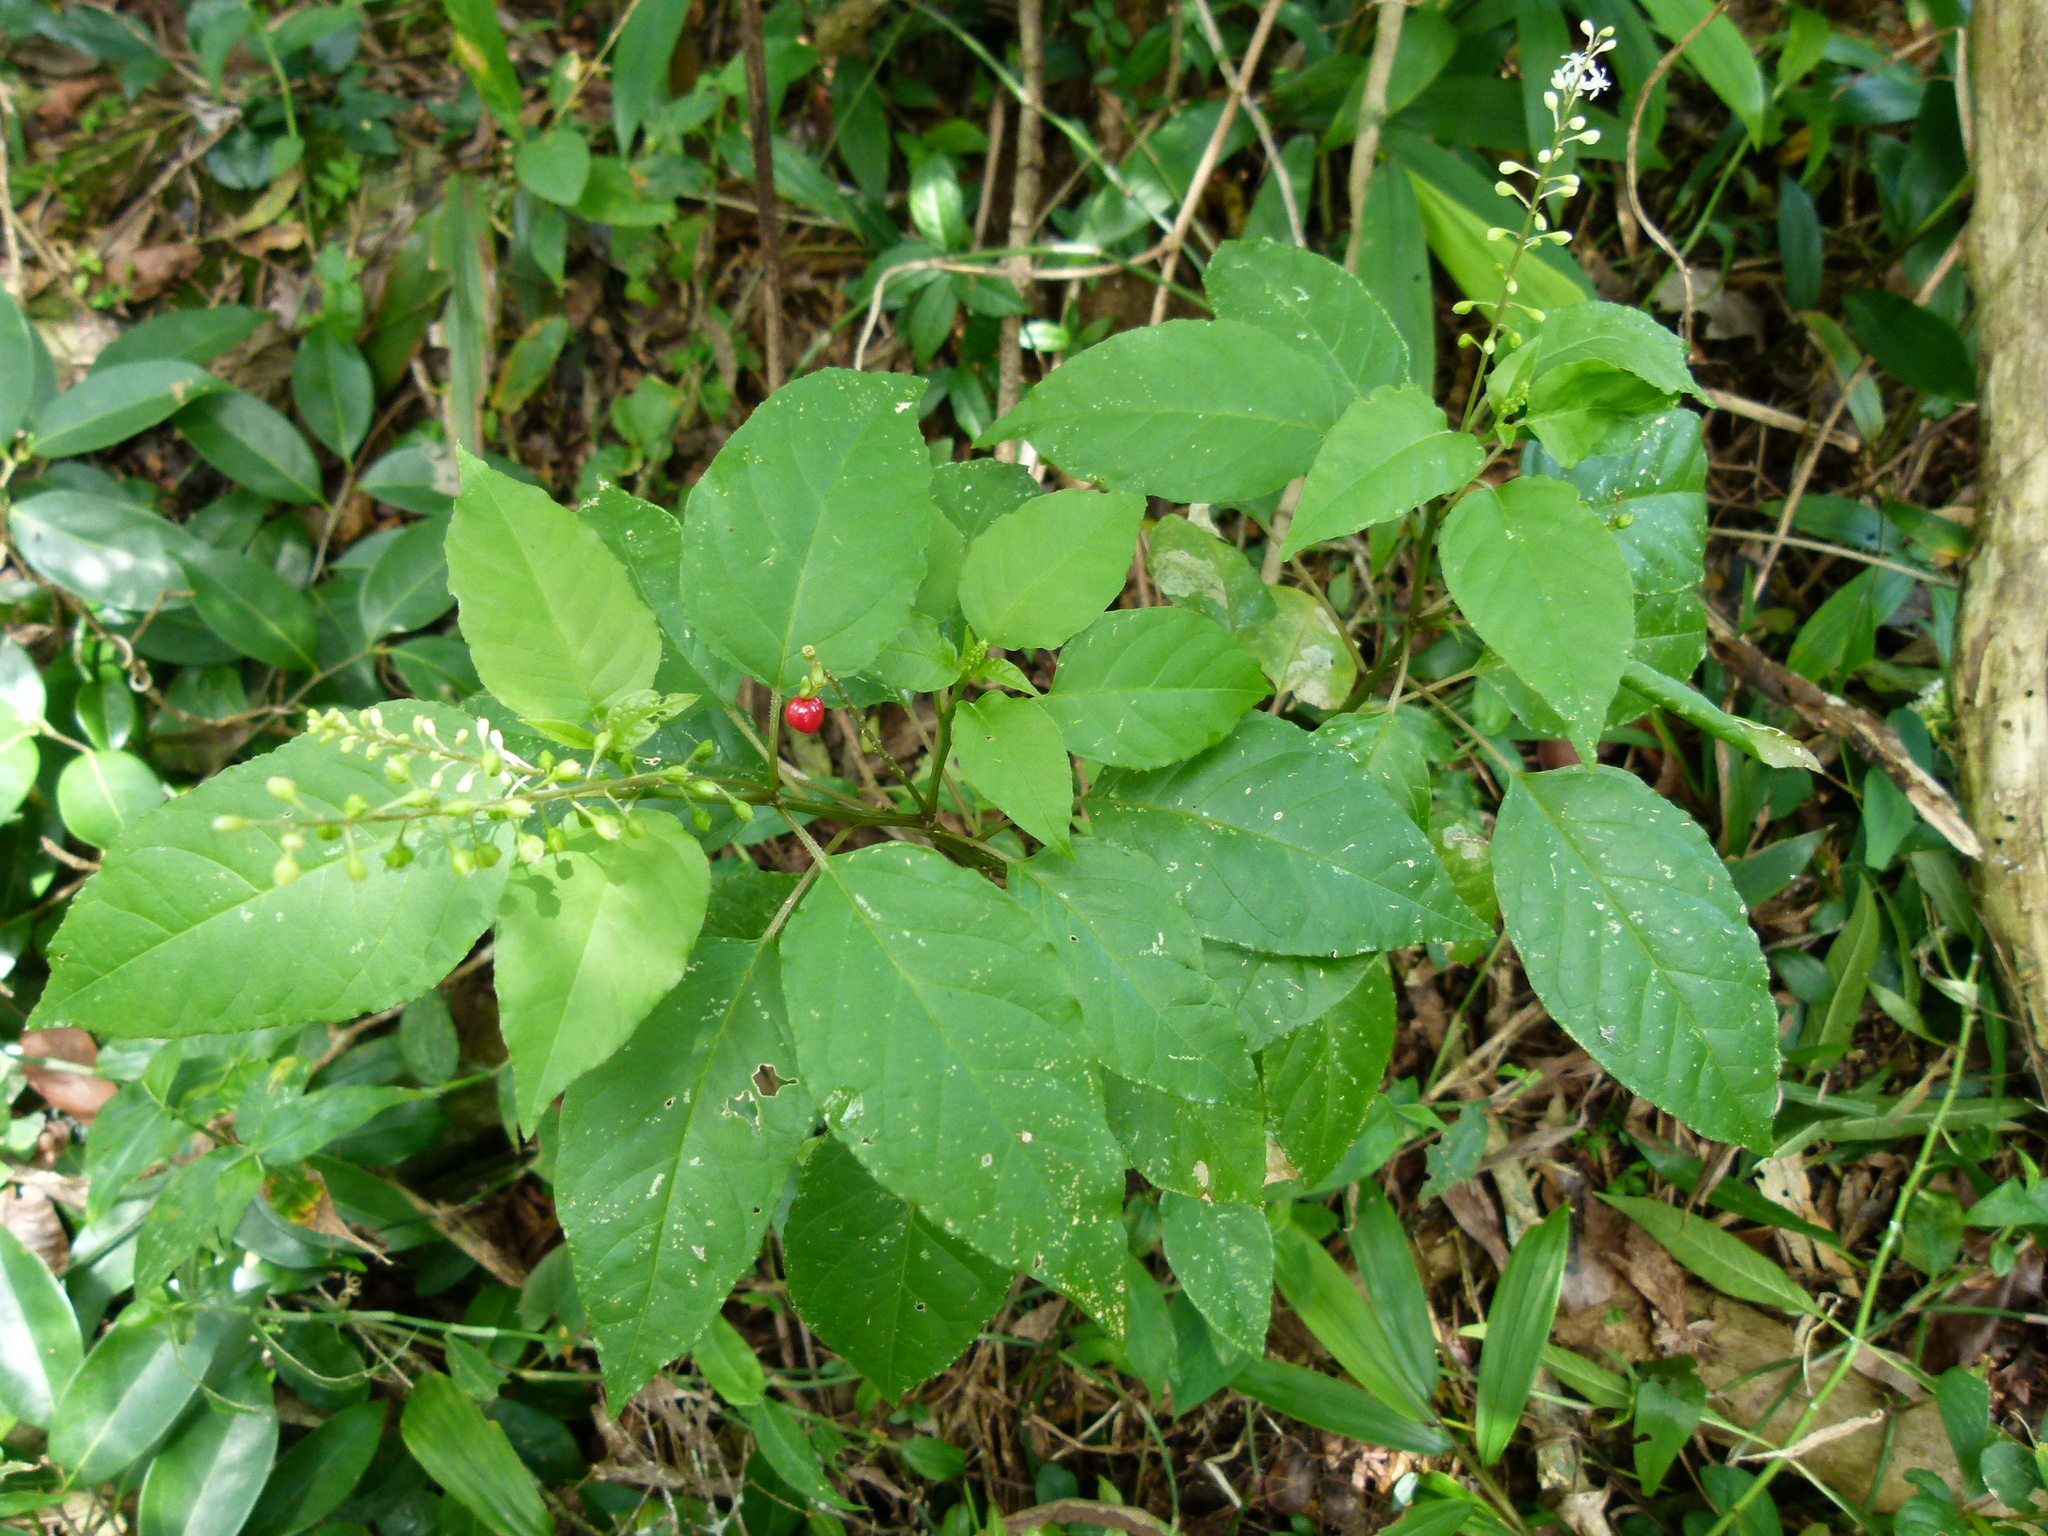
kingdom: Plantae
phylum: Tracheophyta
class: Magnoliopsida
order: Caryophyllales
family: Phytolaccaceae
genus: Rivina
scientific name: Rivina humilis
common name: Rougeplant
